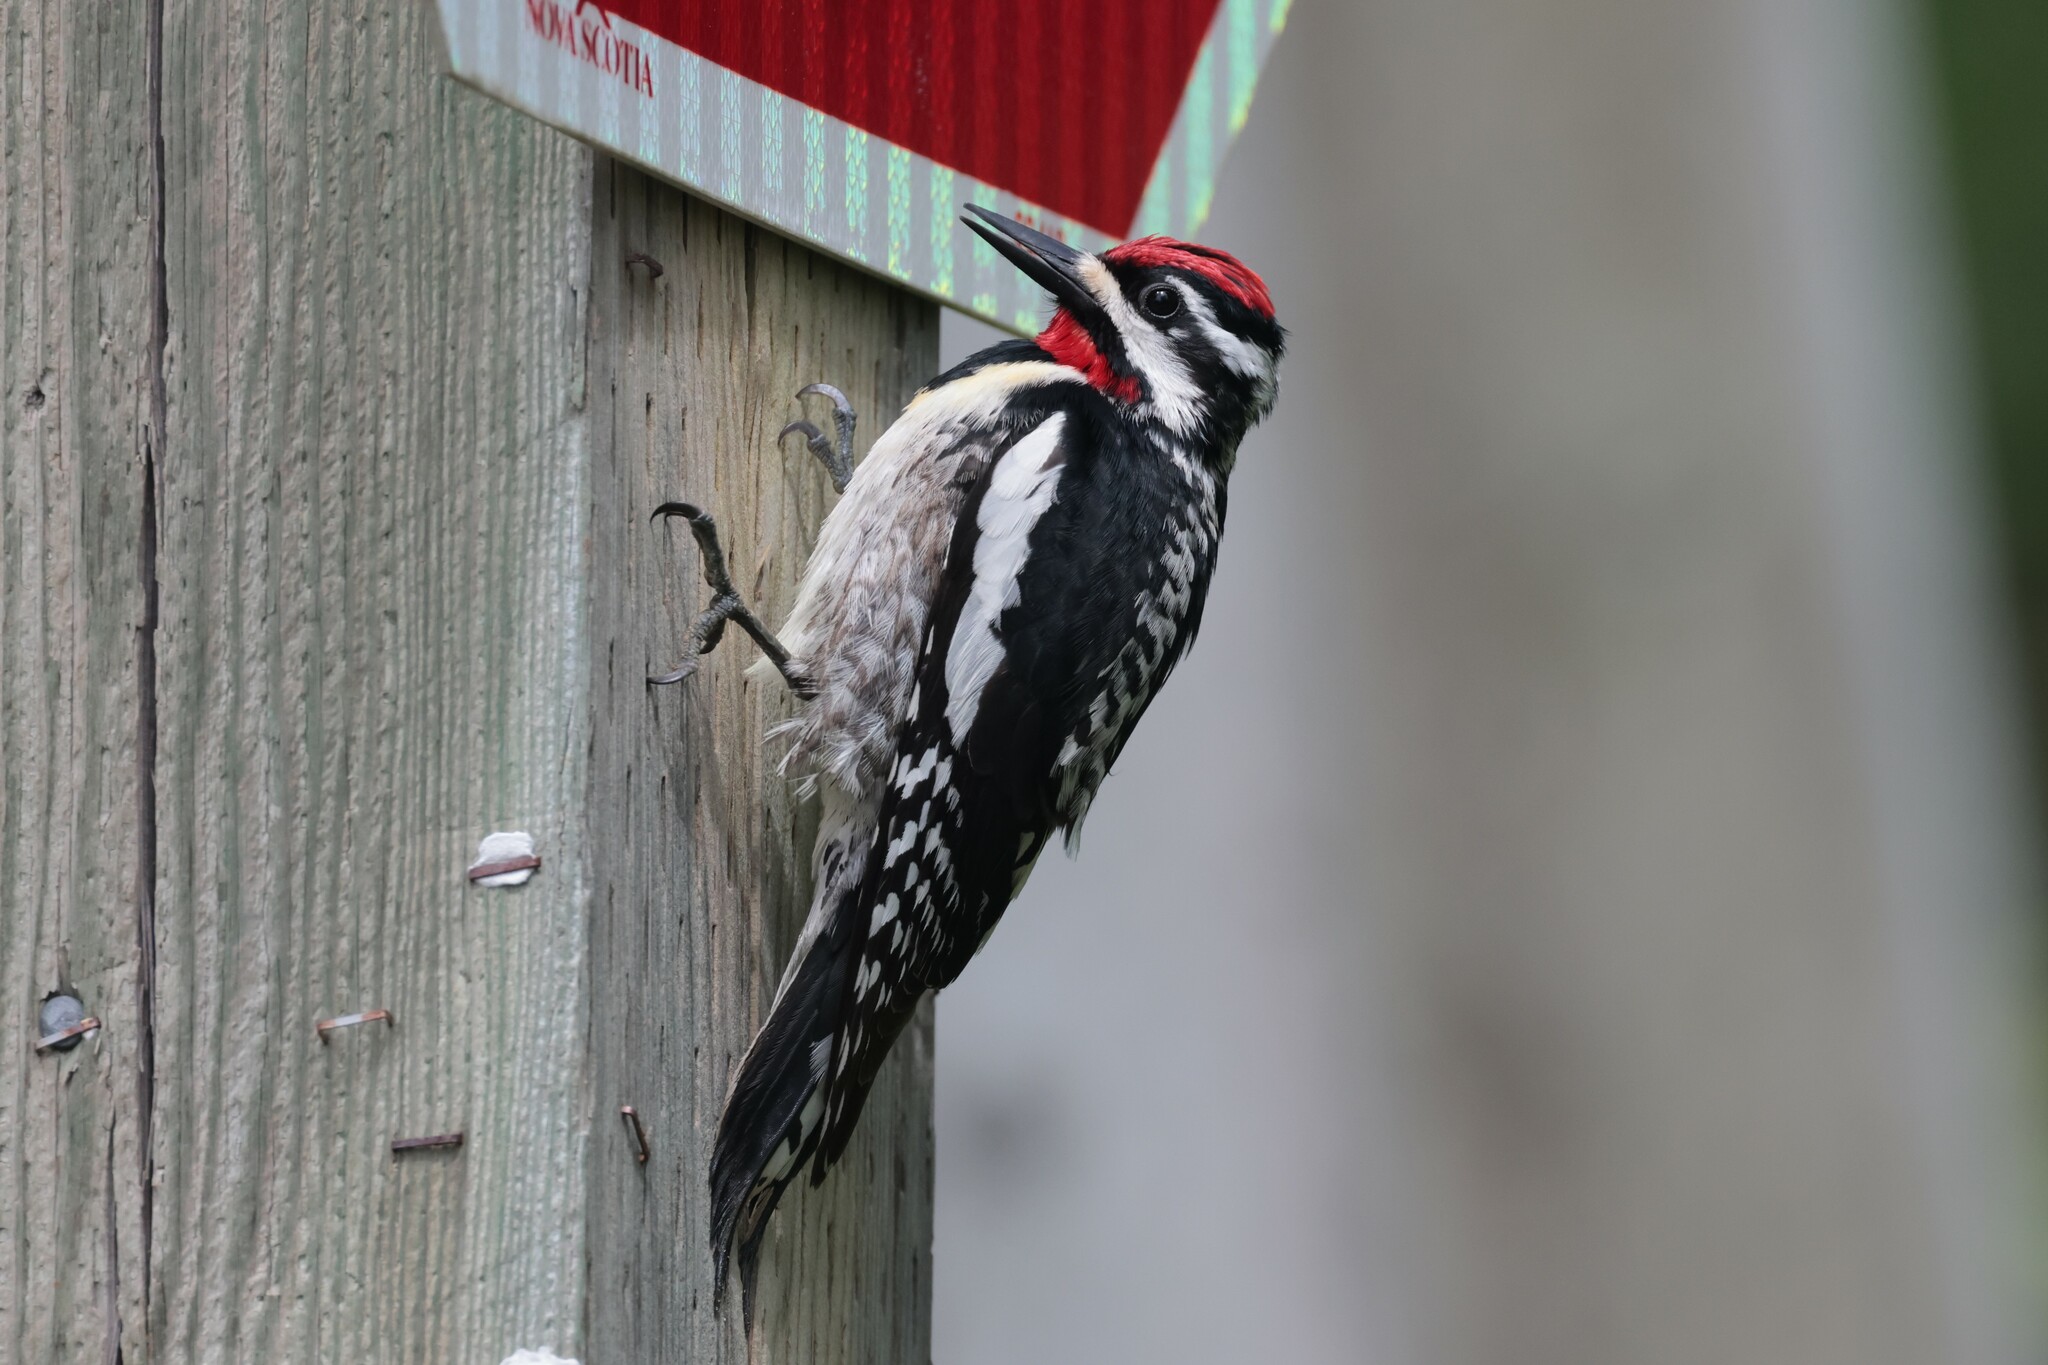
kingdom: Animalia
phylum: Chordata
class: Aves
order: Piciformes
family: Picidae
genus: Sphyrapicus
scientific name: Sphyrapicus varius
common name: Yellow-bellied sapsucker
